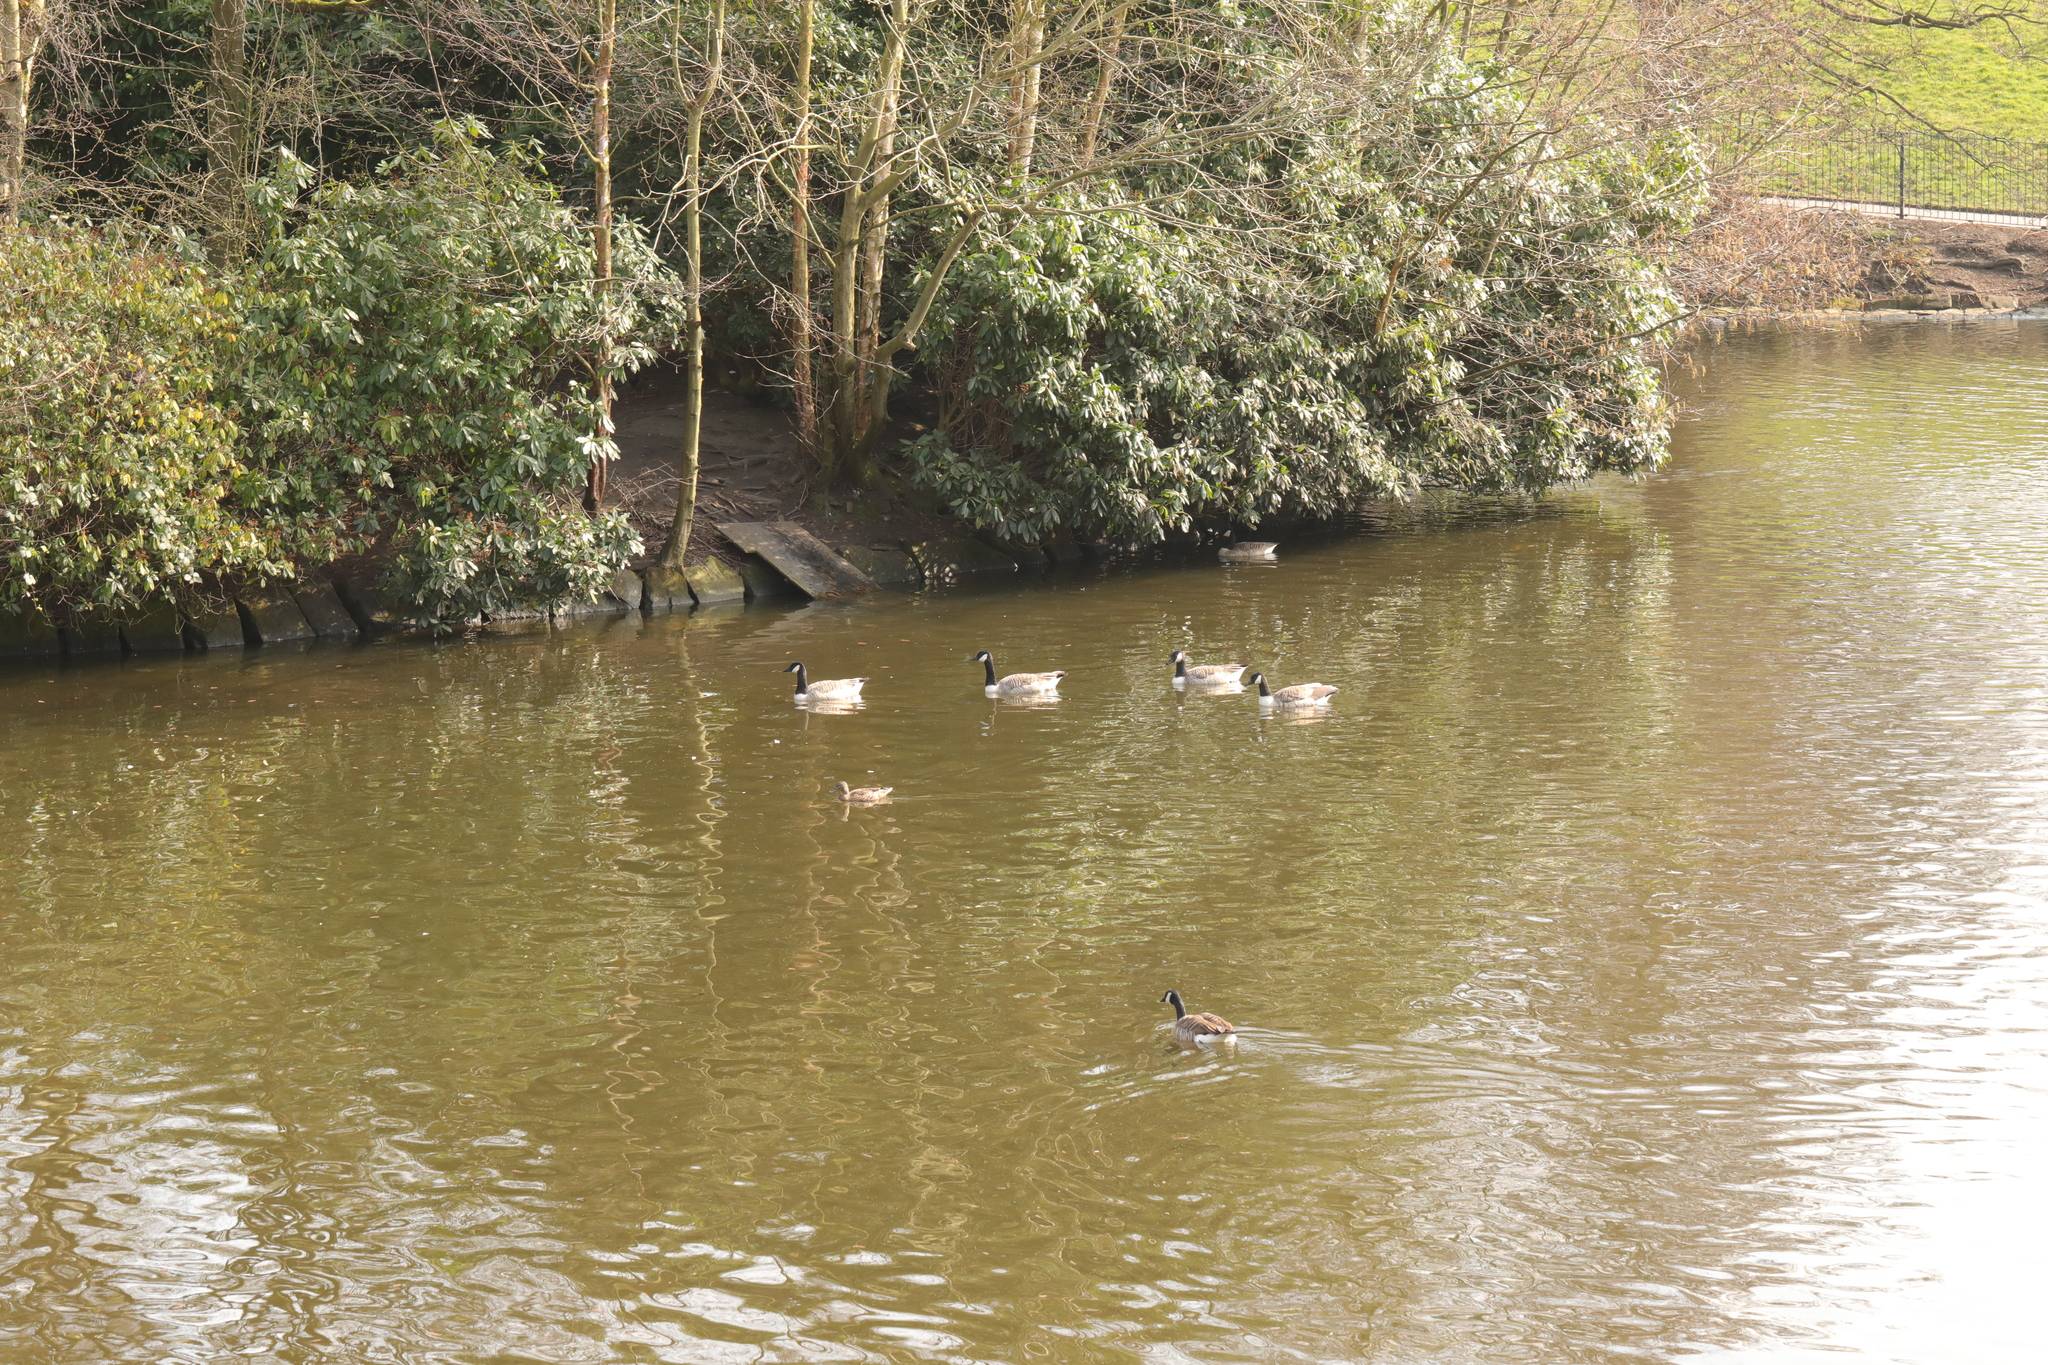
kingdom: Animalia
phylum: Chordata
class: Aves
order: Anseriformes
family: Anatidae
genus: Branta
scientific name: Branta canadensis
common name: Canada goose
